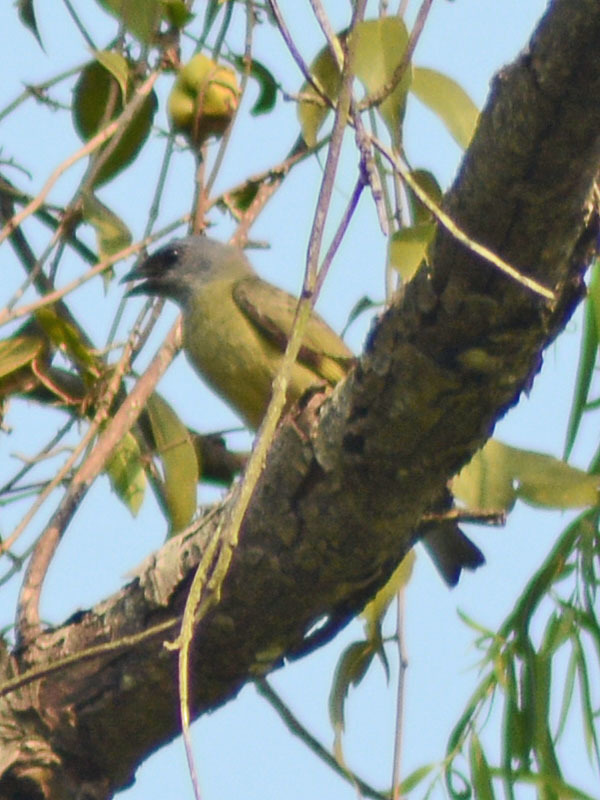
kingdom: Animalia
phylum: Chordata
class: Aves
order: Passeriformes
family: Thraupidae
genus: Thraupis
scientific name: Thraupis abbas
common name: Yellow-winged tanager
